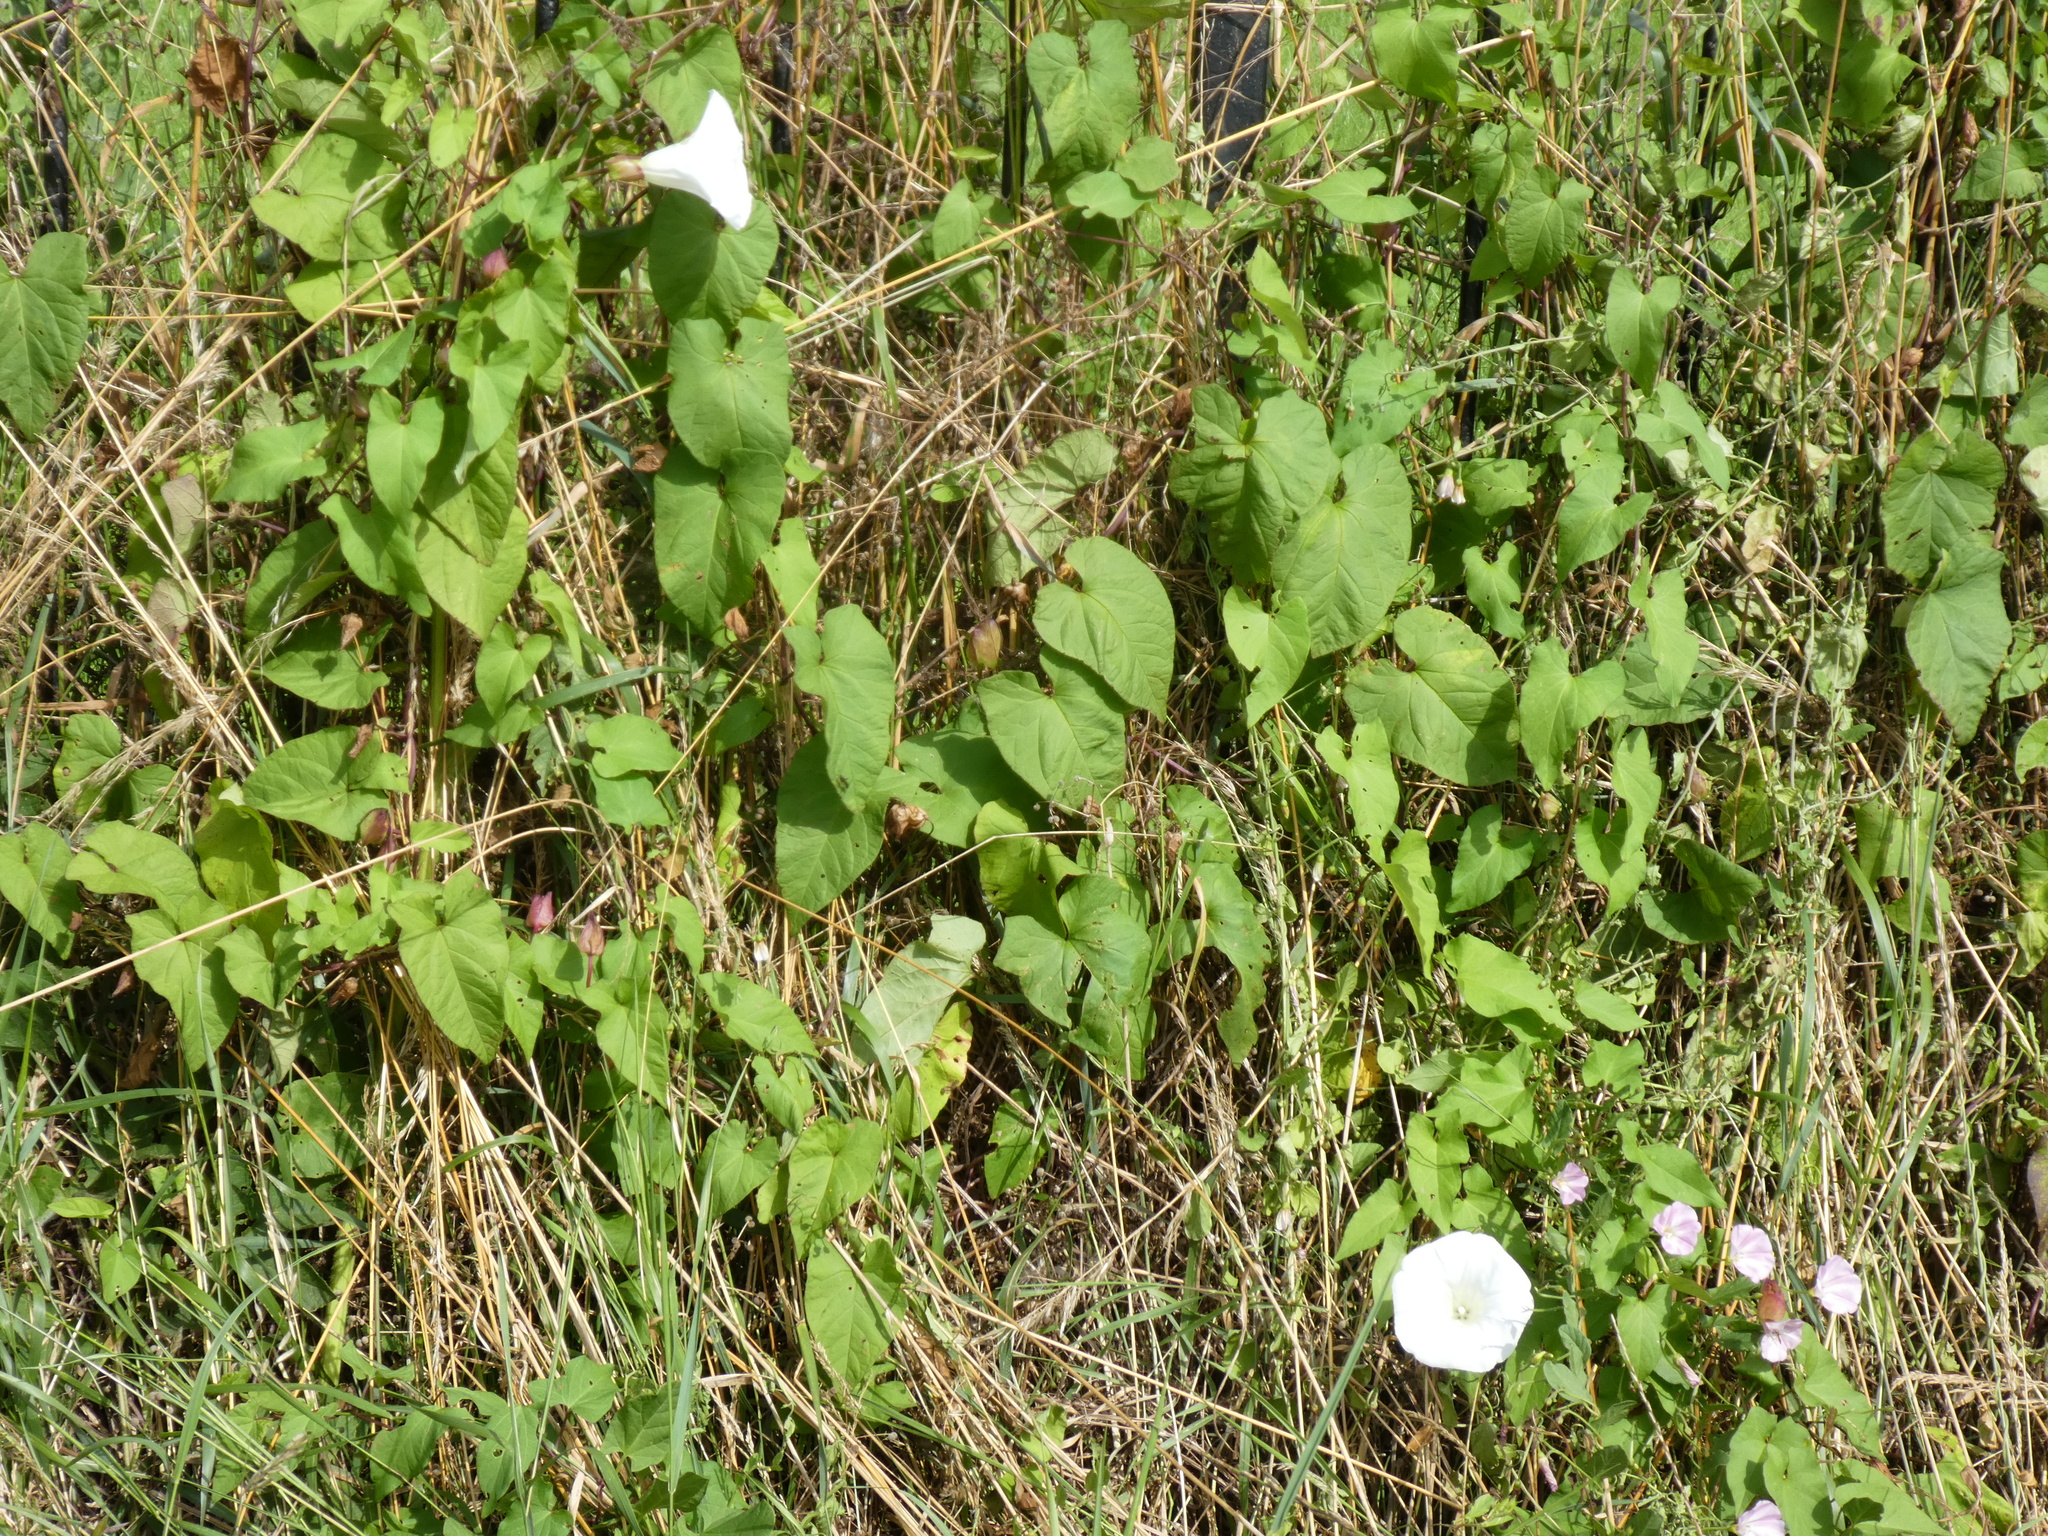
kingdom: Plantae
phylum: Tracheophyta
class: Magnoliopsida
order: Solanales
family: Convolvulaceae
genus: Calystegia
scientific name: Calystegia silvatica
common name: Large bindweed
